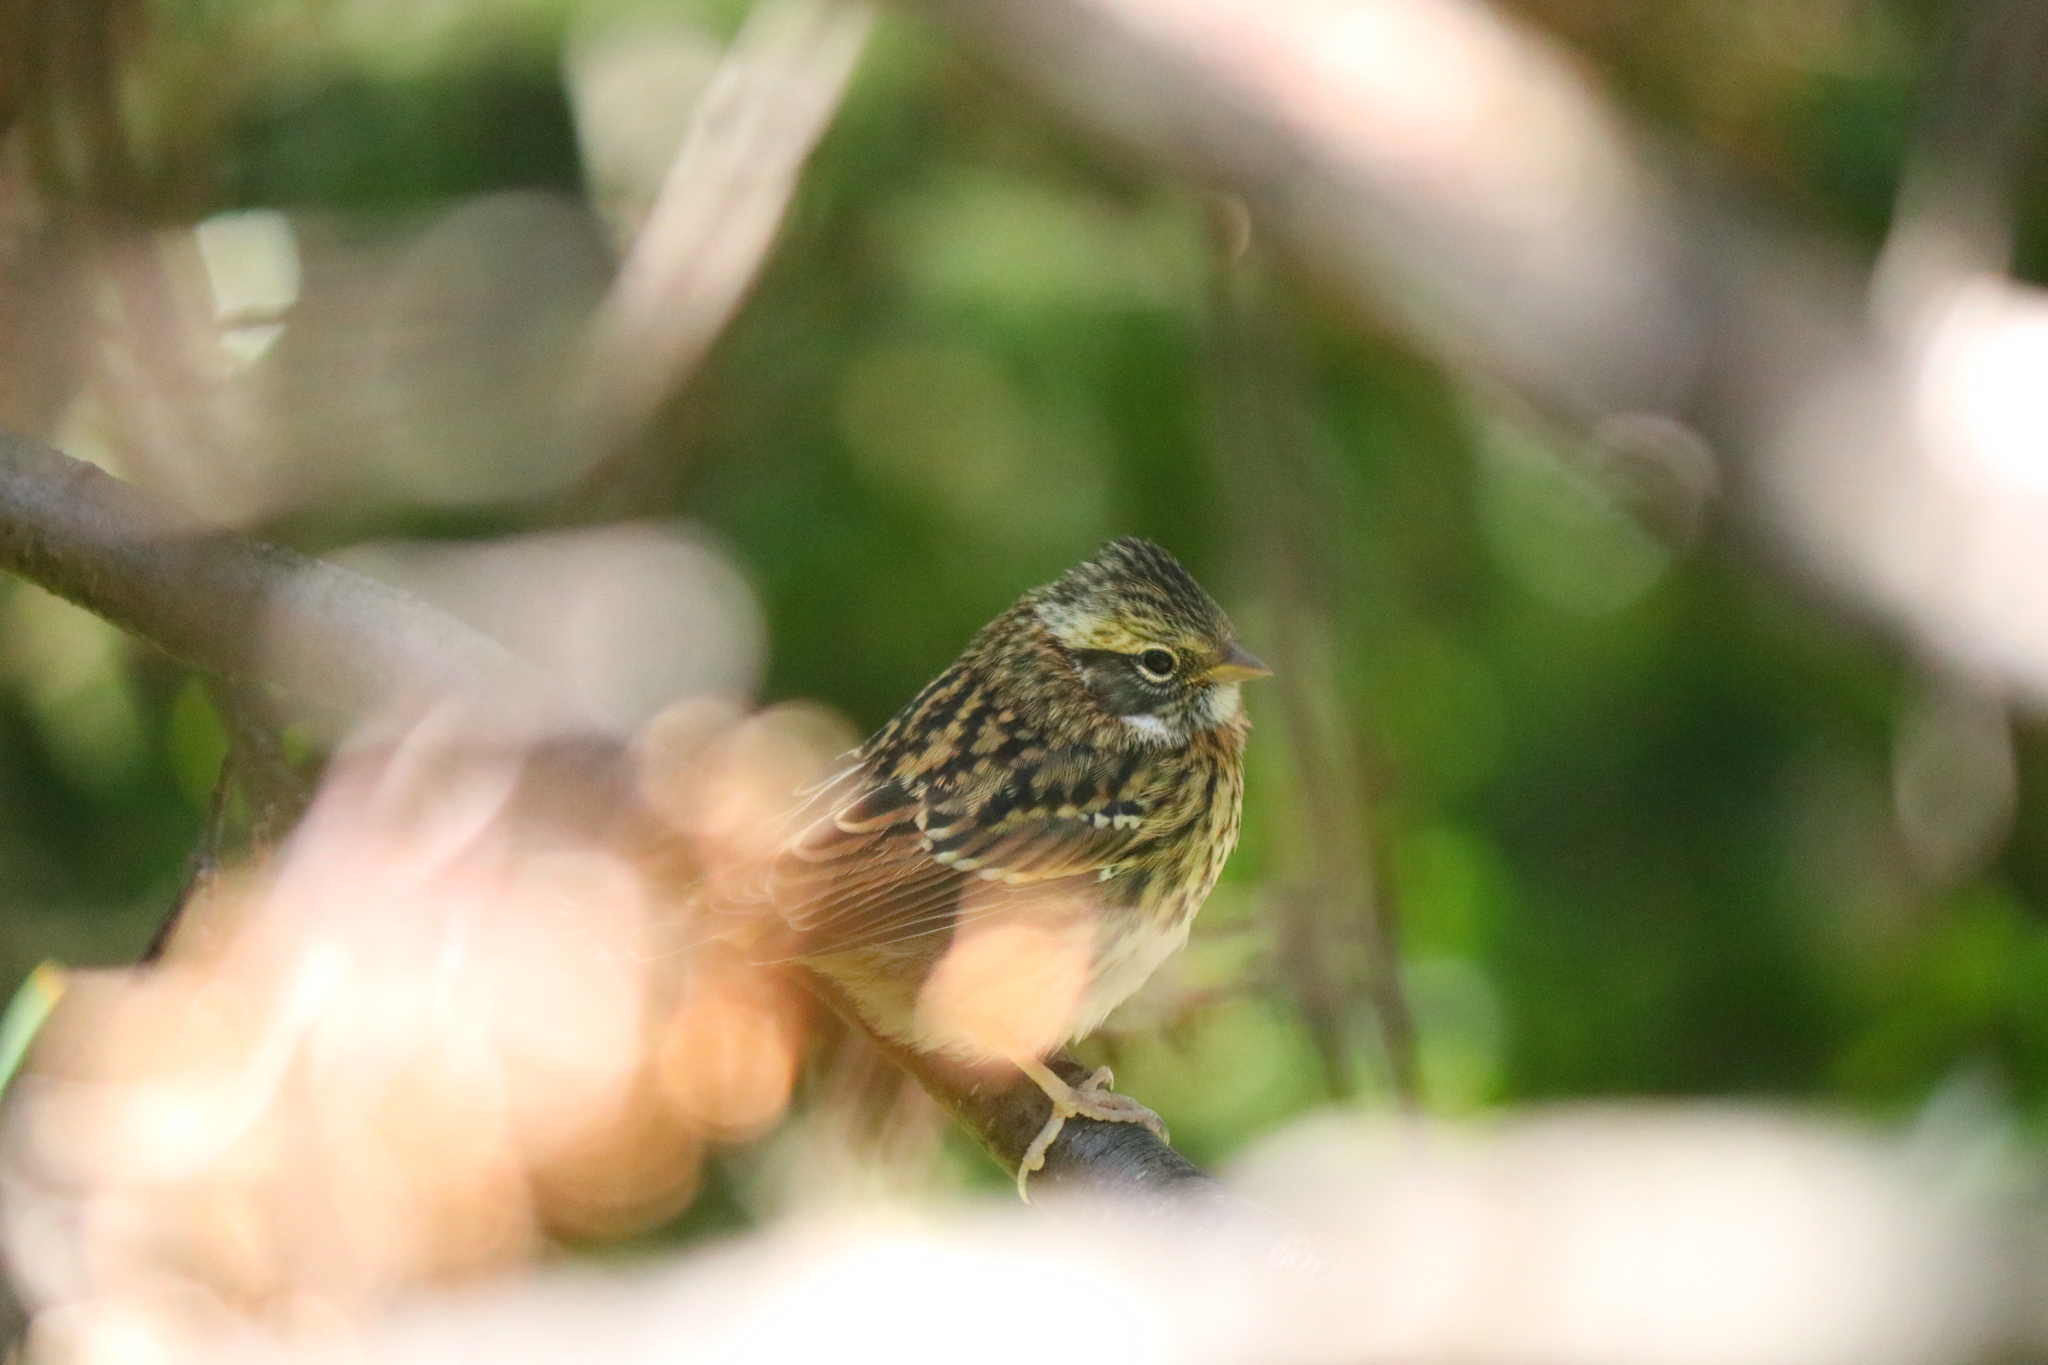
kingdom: Animalia
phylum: Chordata
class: Aves
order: Passeriformes
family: Passerellidae
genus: Zonotrichia
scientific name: Zonotrichia capensis
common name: Rufous-collared sparrow
